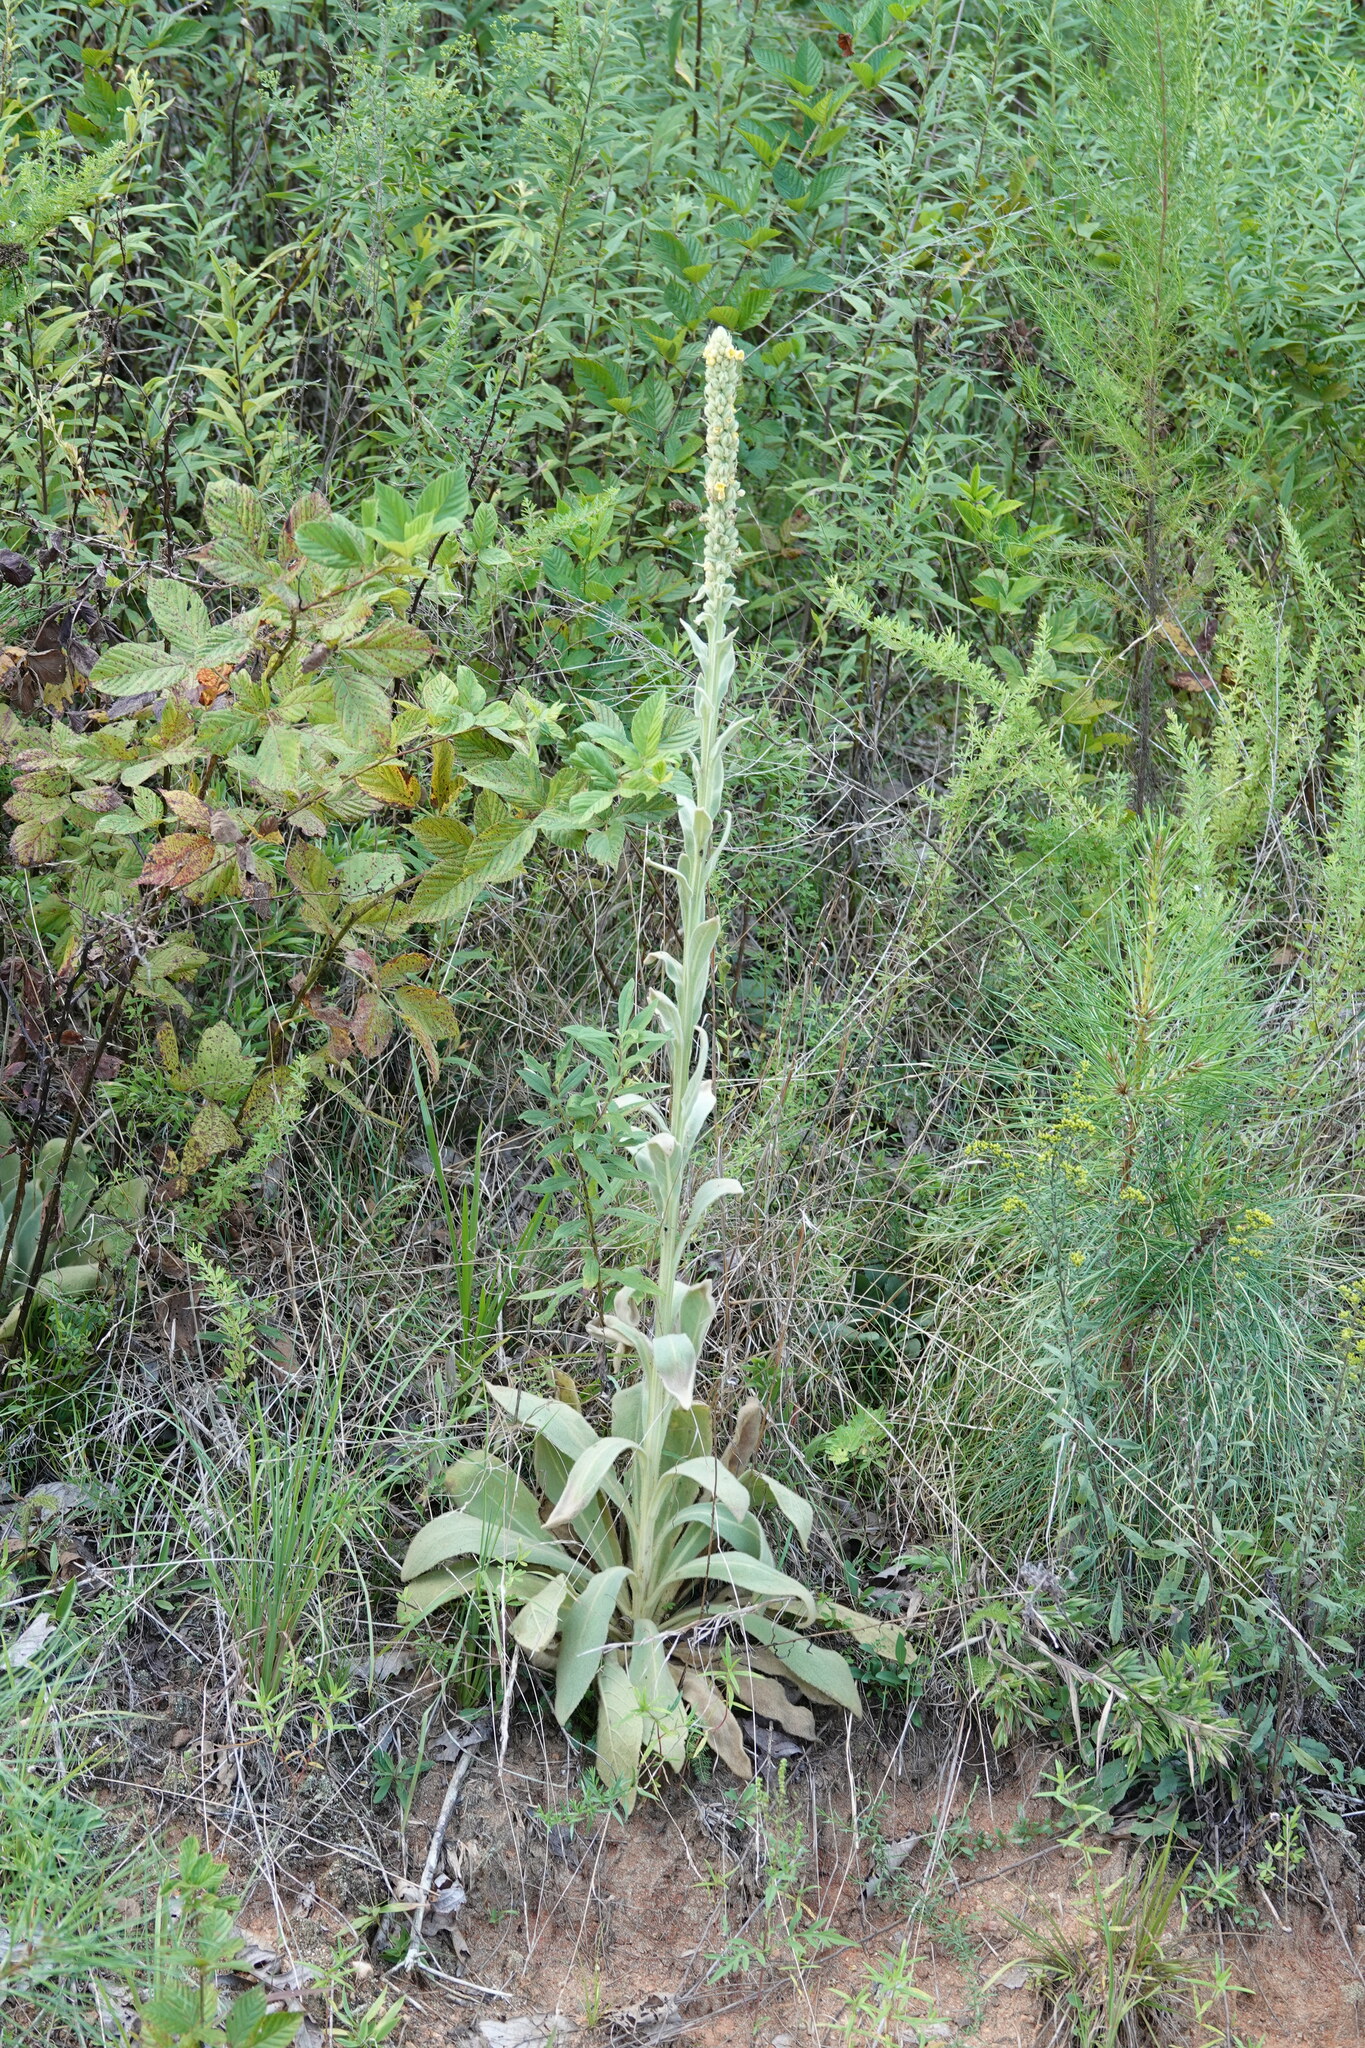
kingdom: Plantae
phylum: Tracheophyta
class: Magnoliopsida
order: Lamiales
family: Scrophulariaceae
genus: Verbascum
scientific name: Verbascum thapsus
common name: Common mullein
